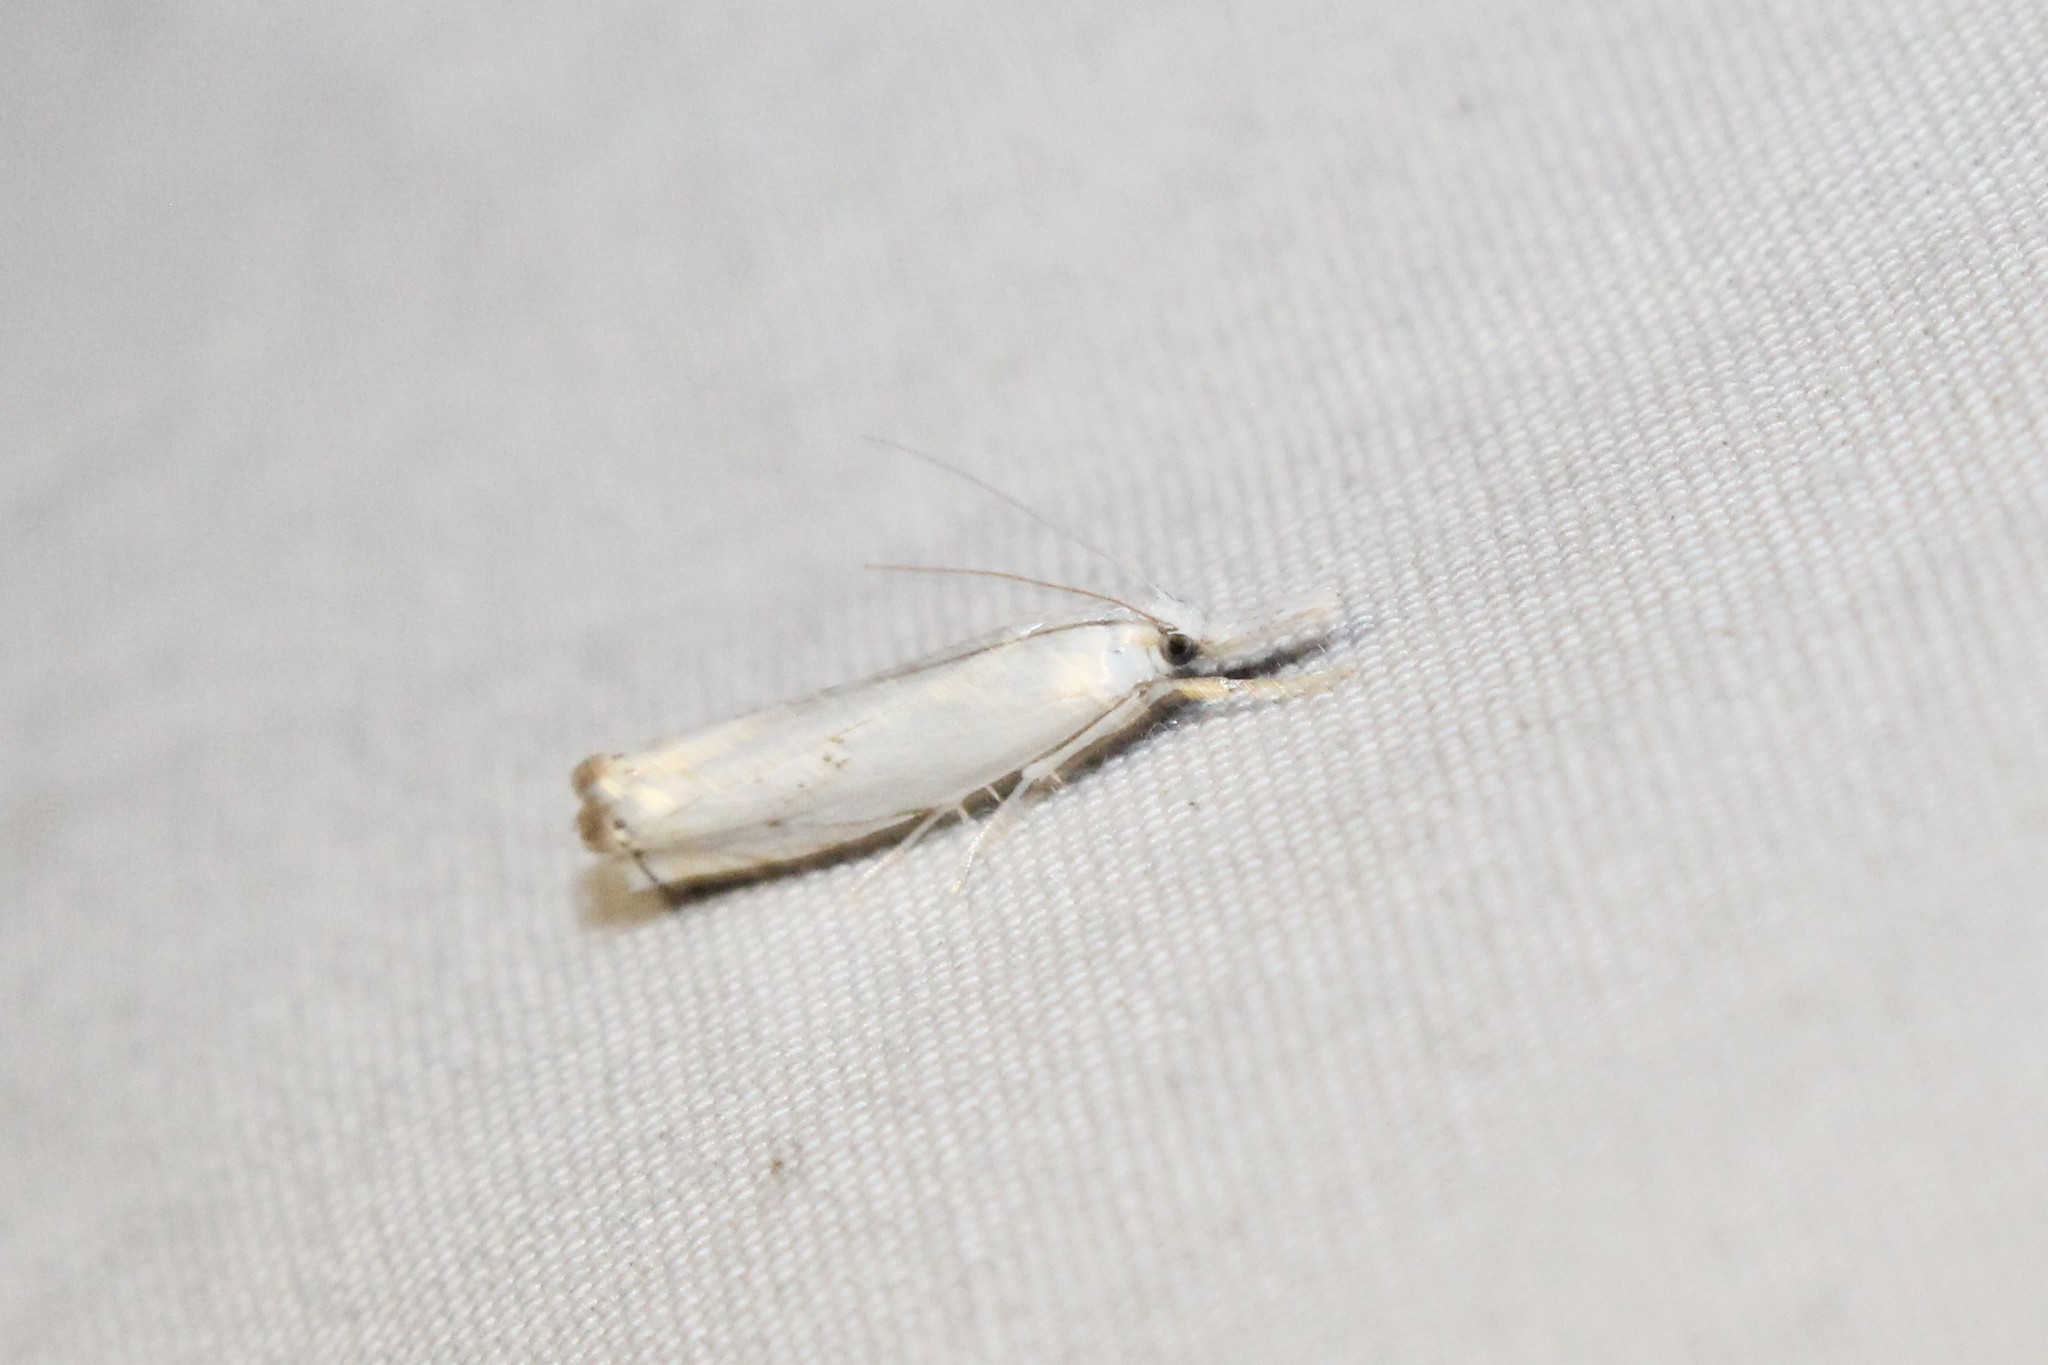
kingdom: Animalia
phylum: Arthropoda
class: Insecta
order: Lepidoptera
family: Crambidae
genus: Crambus
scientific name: Crambus albellus
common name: Small white grass-veneer
